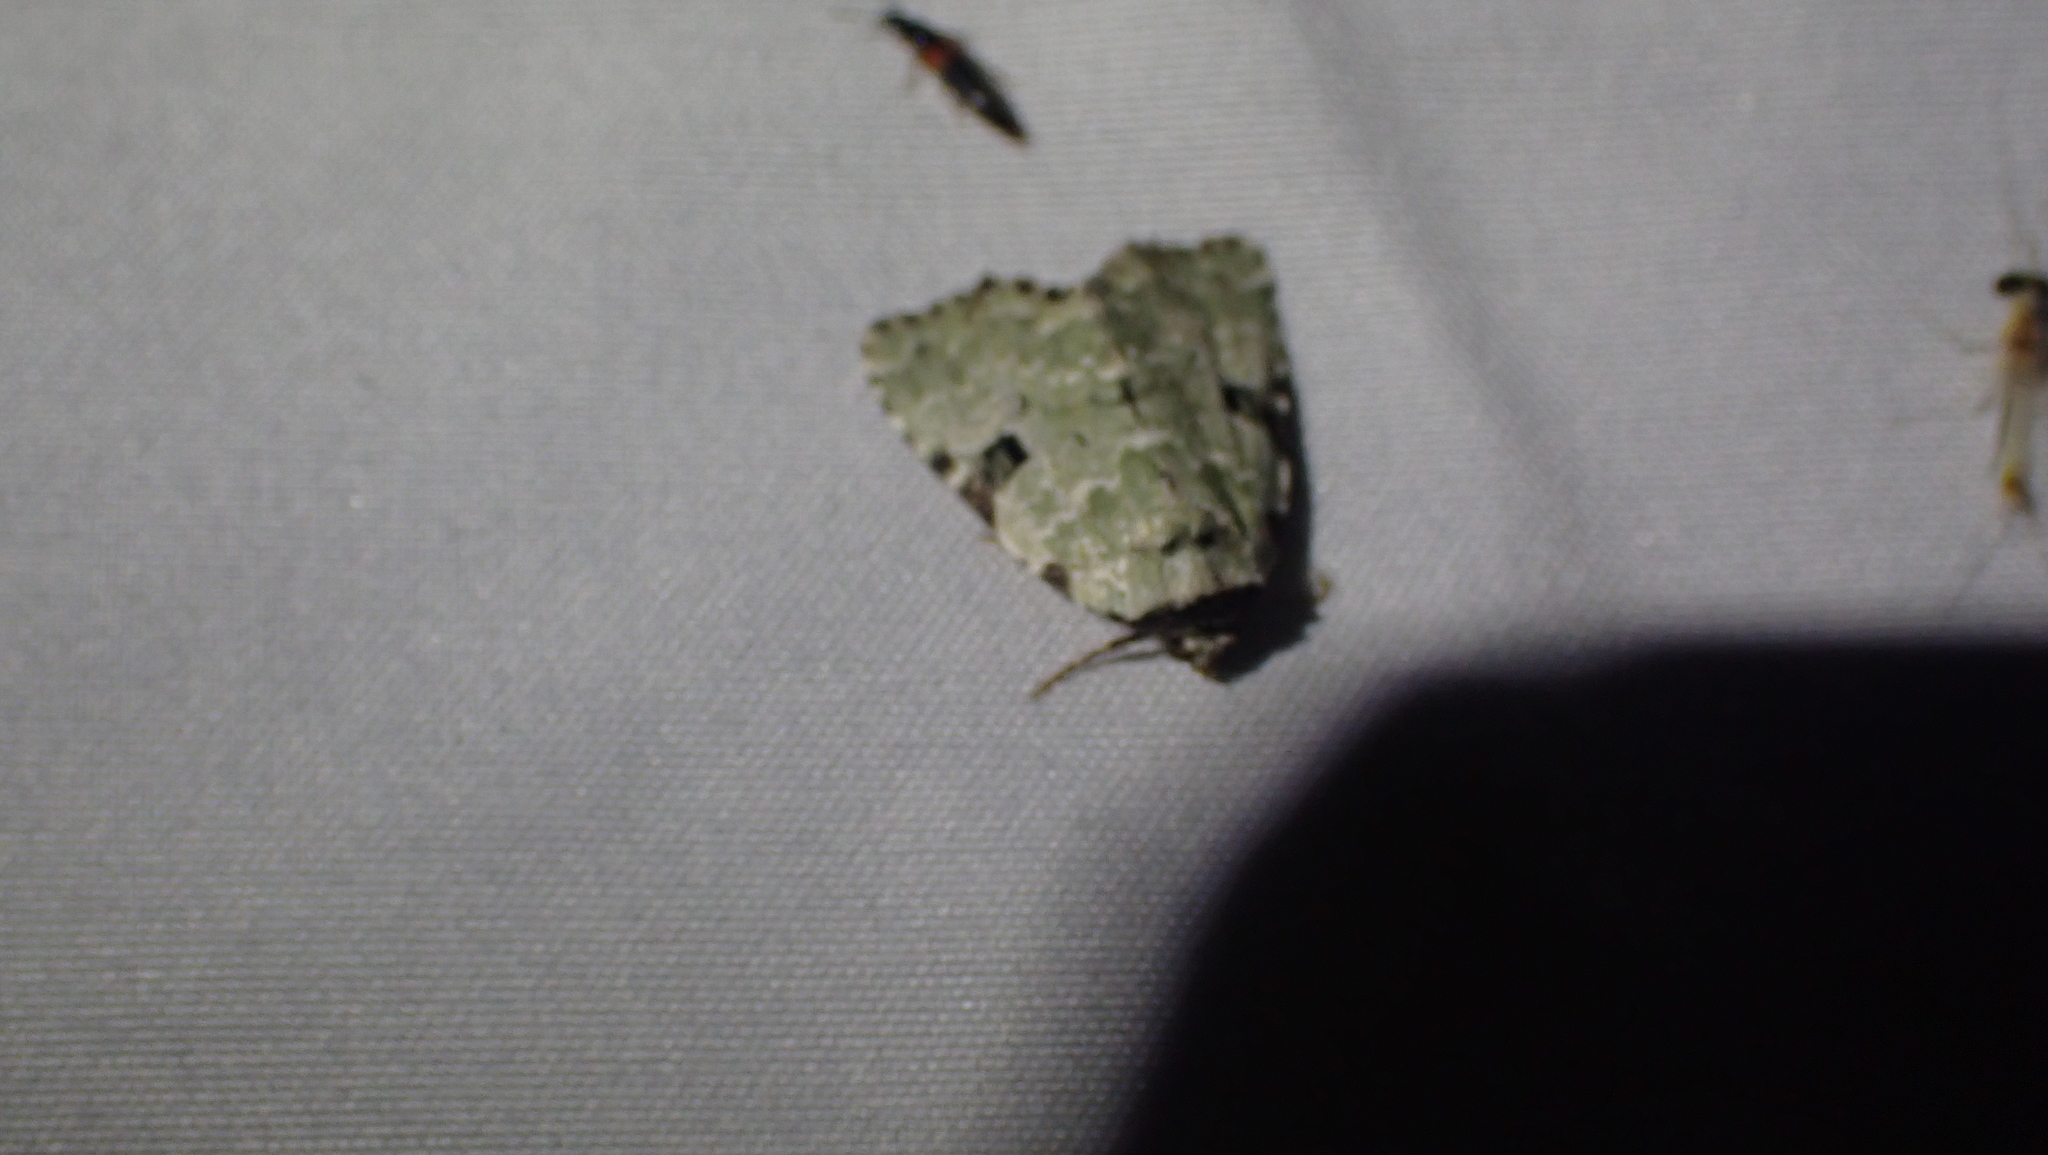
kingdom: Animalia
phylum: Arthropoda
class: Insecta
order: Lepidoptera
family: Noctuidae
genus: Leuconycta
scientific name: Leuconycta diphteroides
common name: Green leuconycta moth
